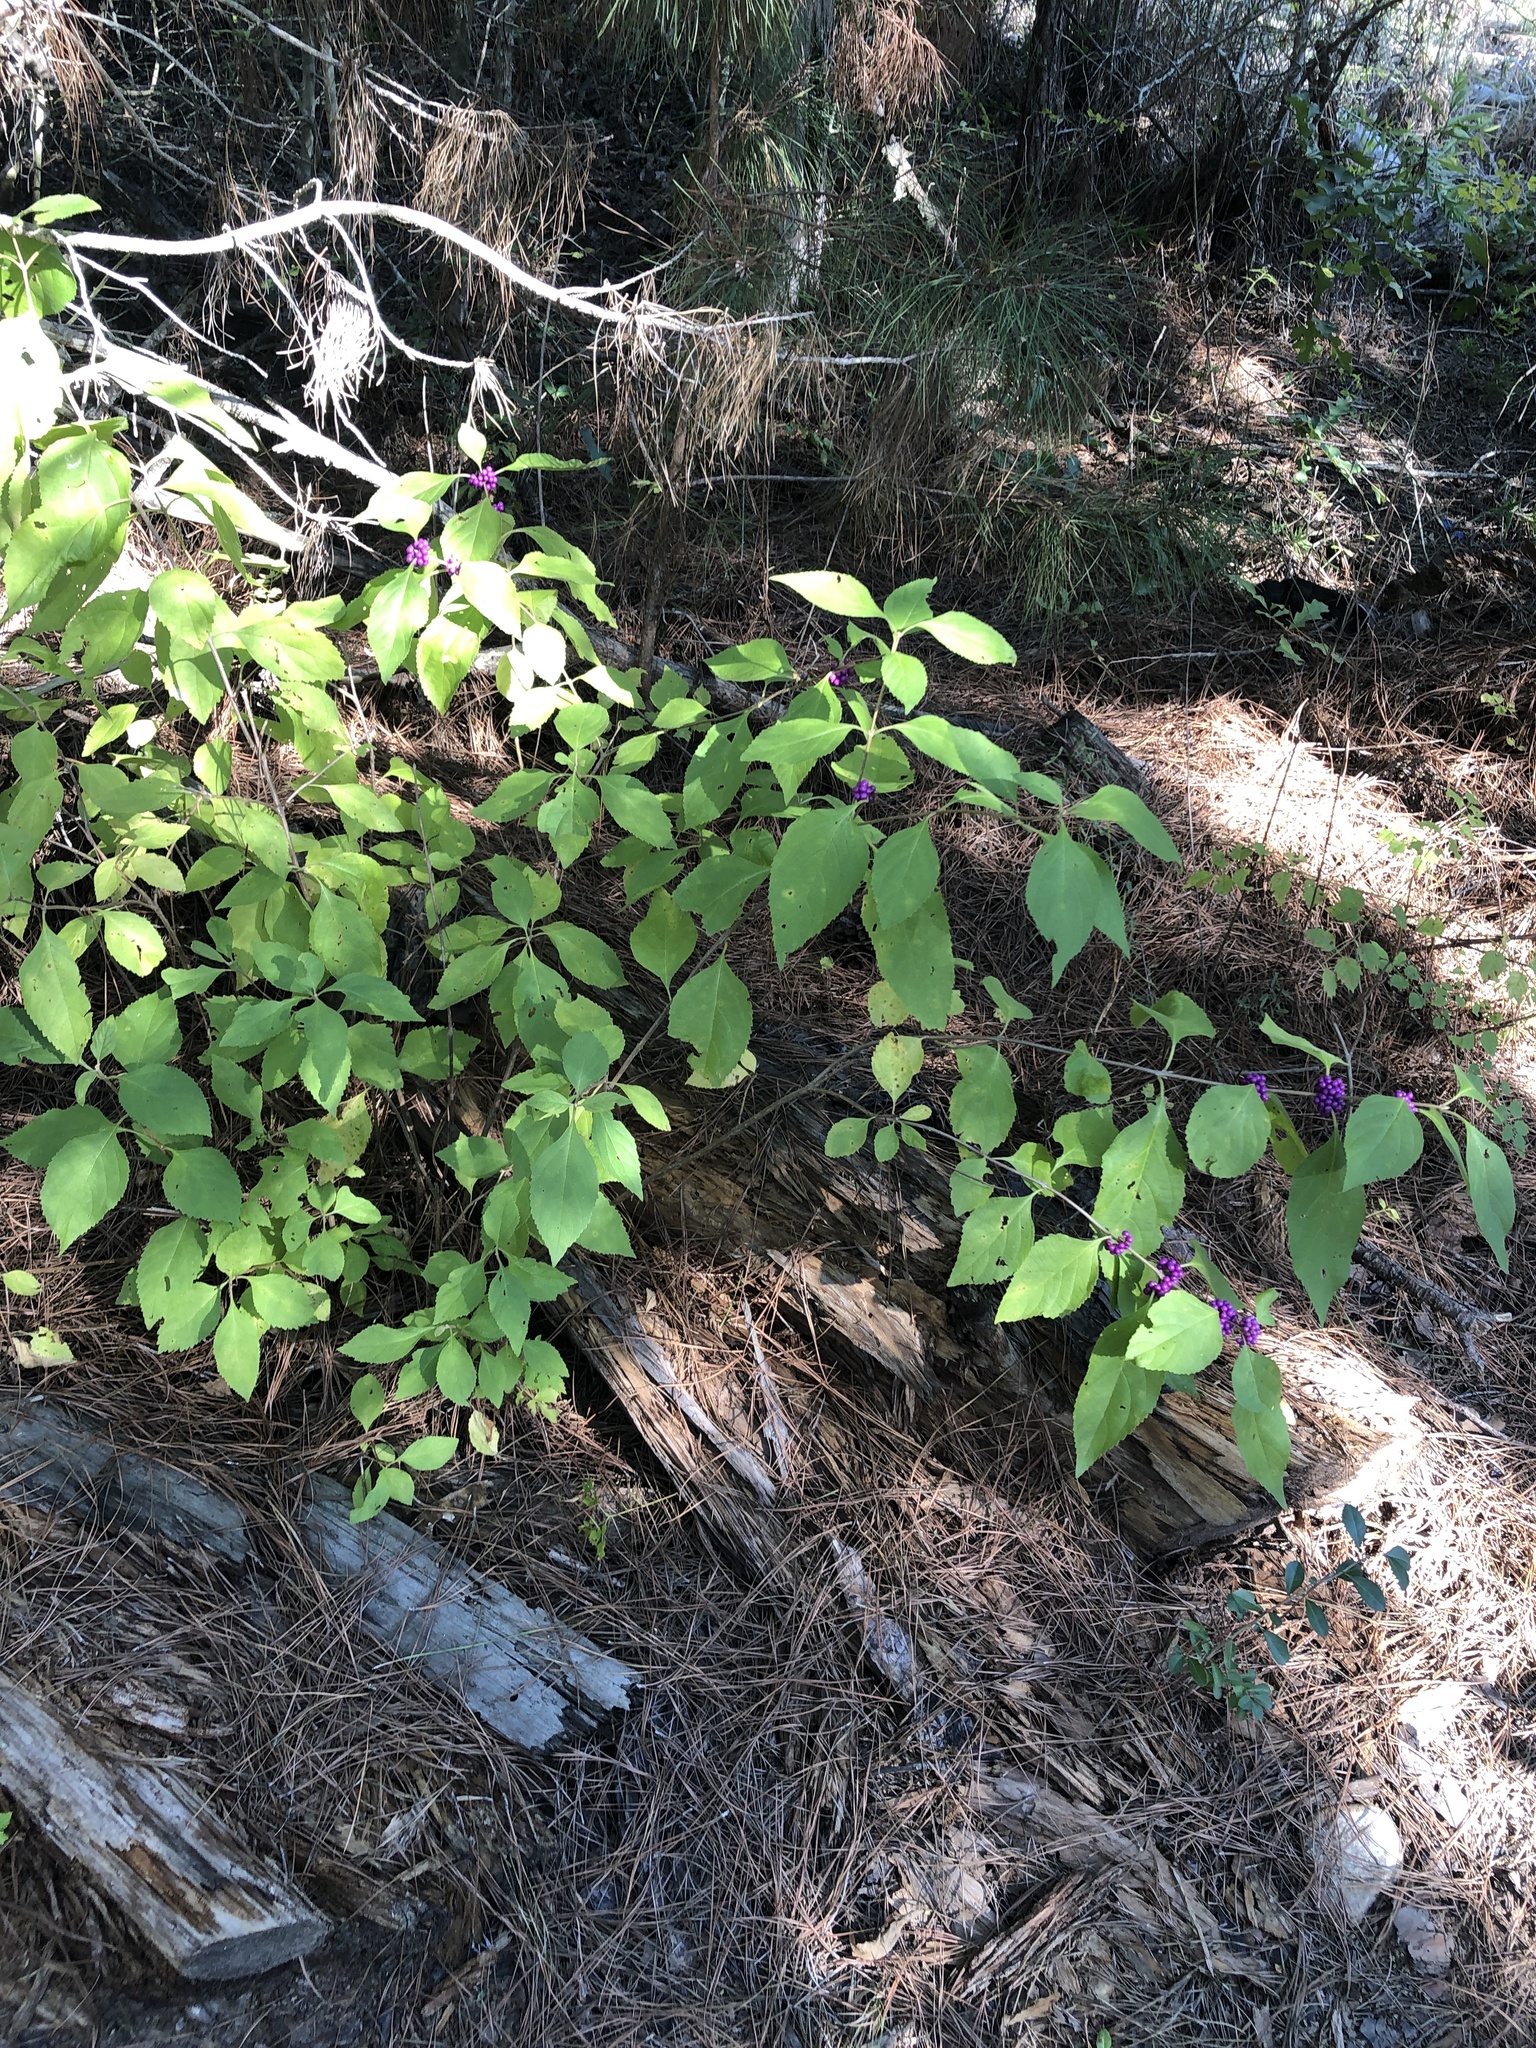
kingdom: Plantae
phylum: Tracheophyta
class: Magnoliopsida
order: Lamiales
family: Lamiaceae
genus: Callicarpa
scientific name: Callicarpa americana
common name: American beautyberry
